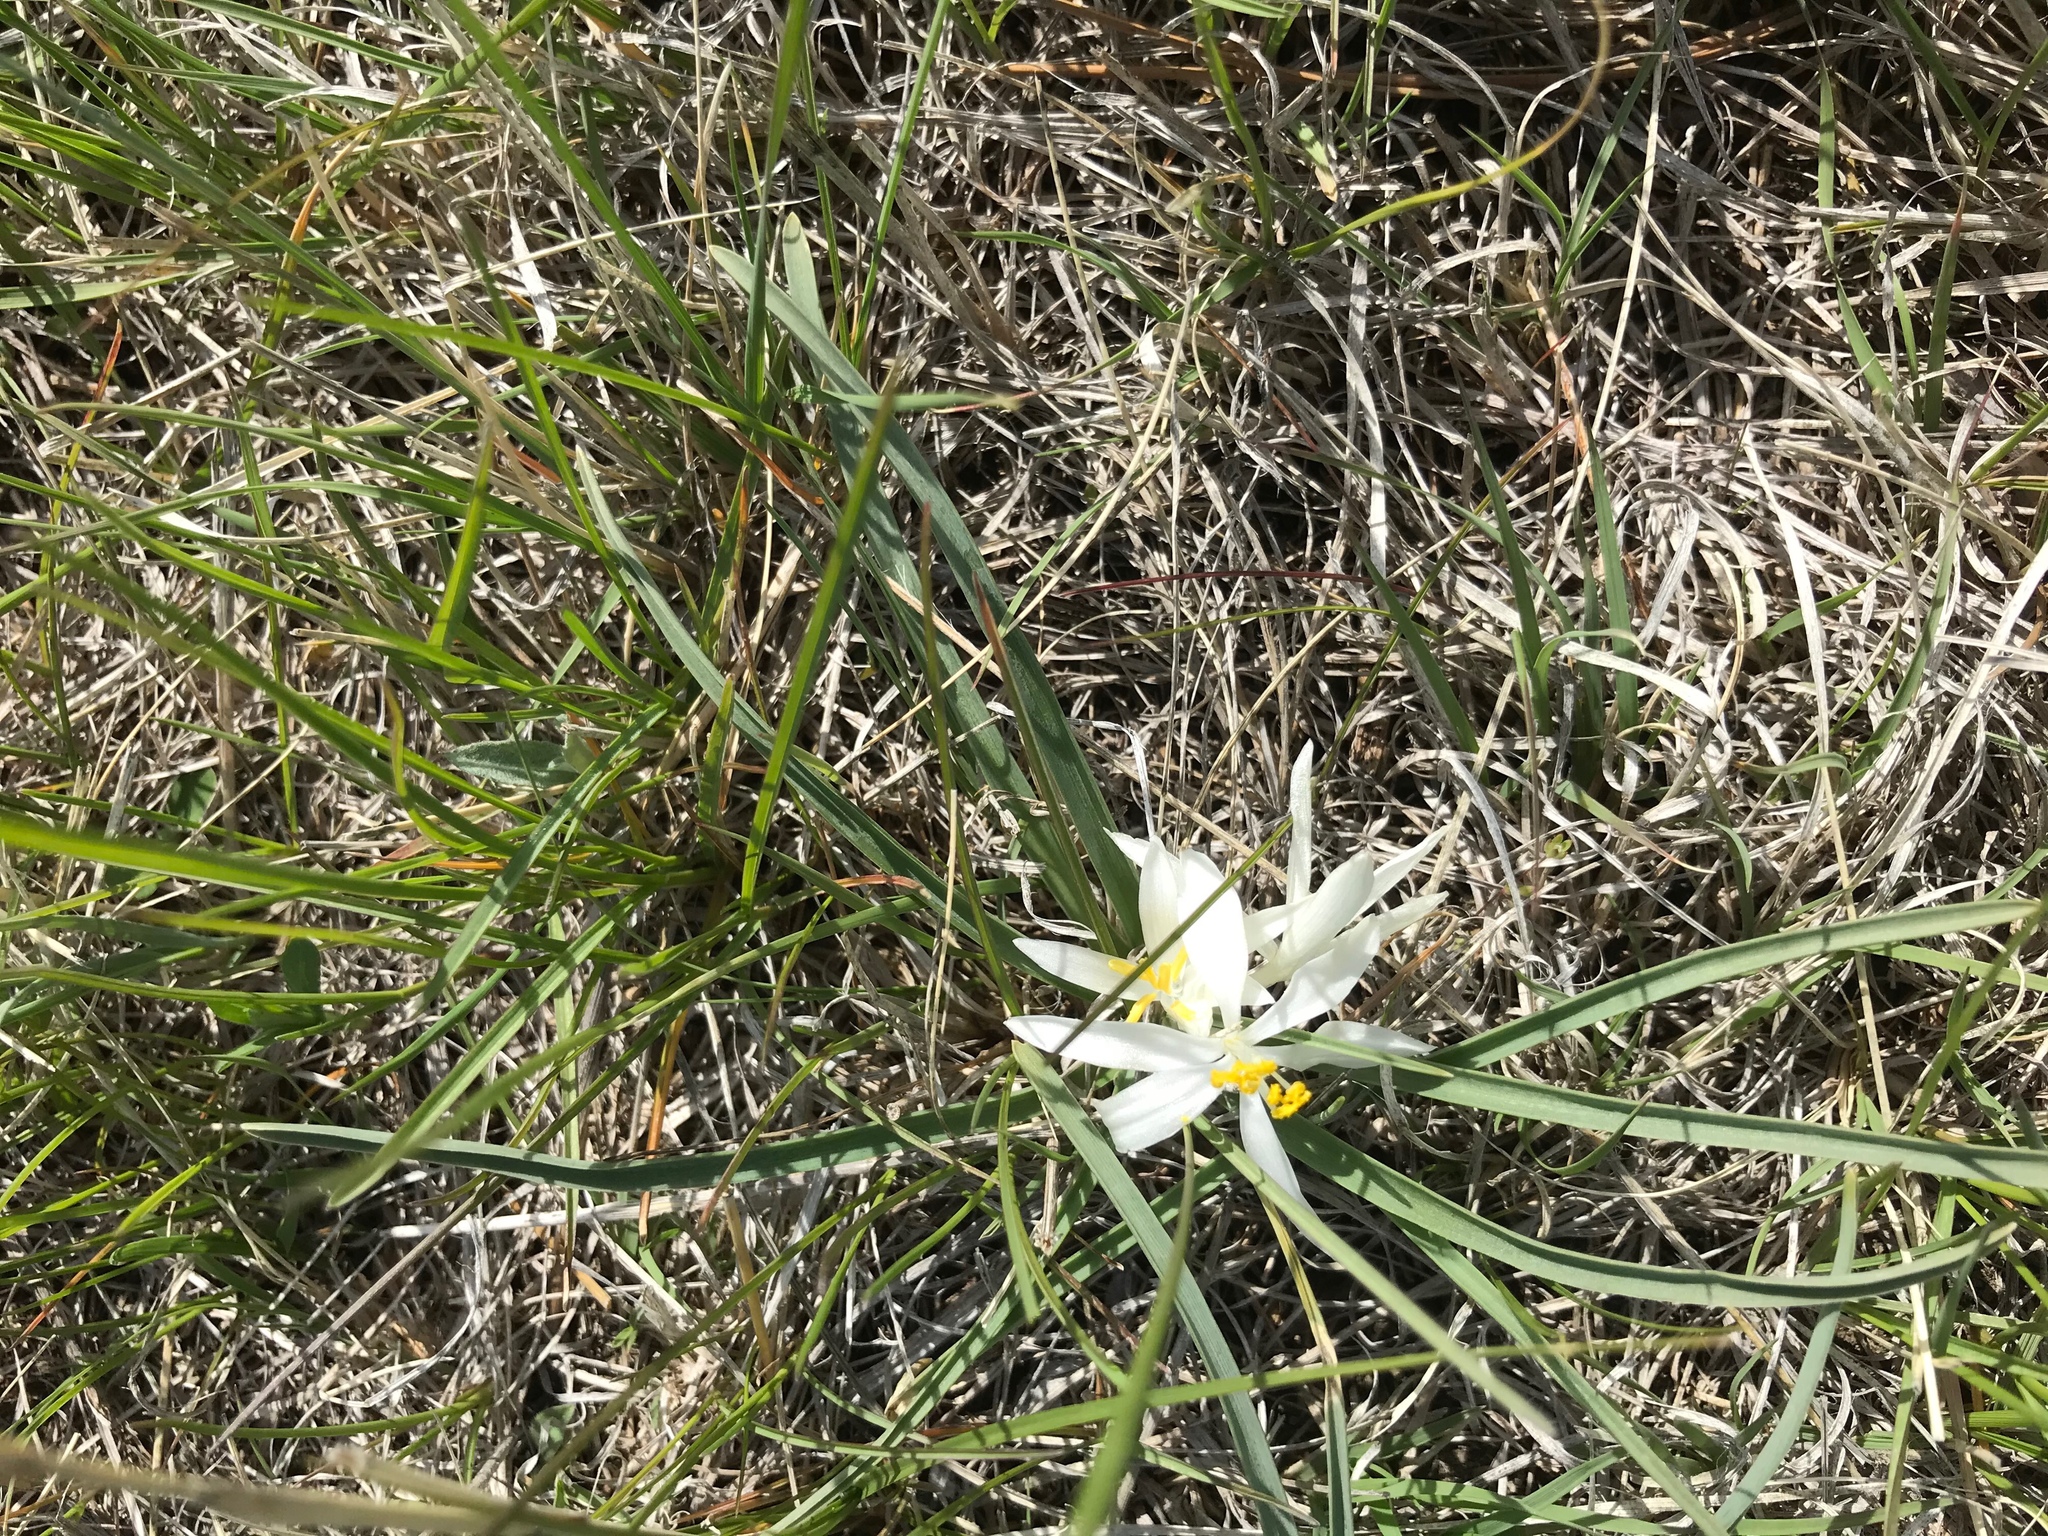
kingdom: Plantae
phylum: Tracheophyta
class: Liliopsida
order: Asparagales
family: Asparagaceae
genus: Leucocrinum
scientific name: Leucocrinum montanum
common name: Mountain-lily
